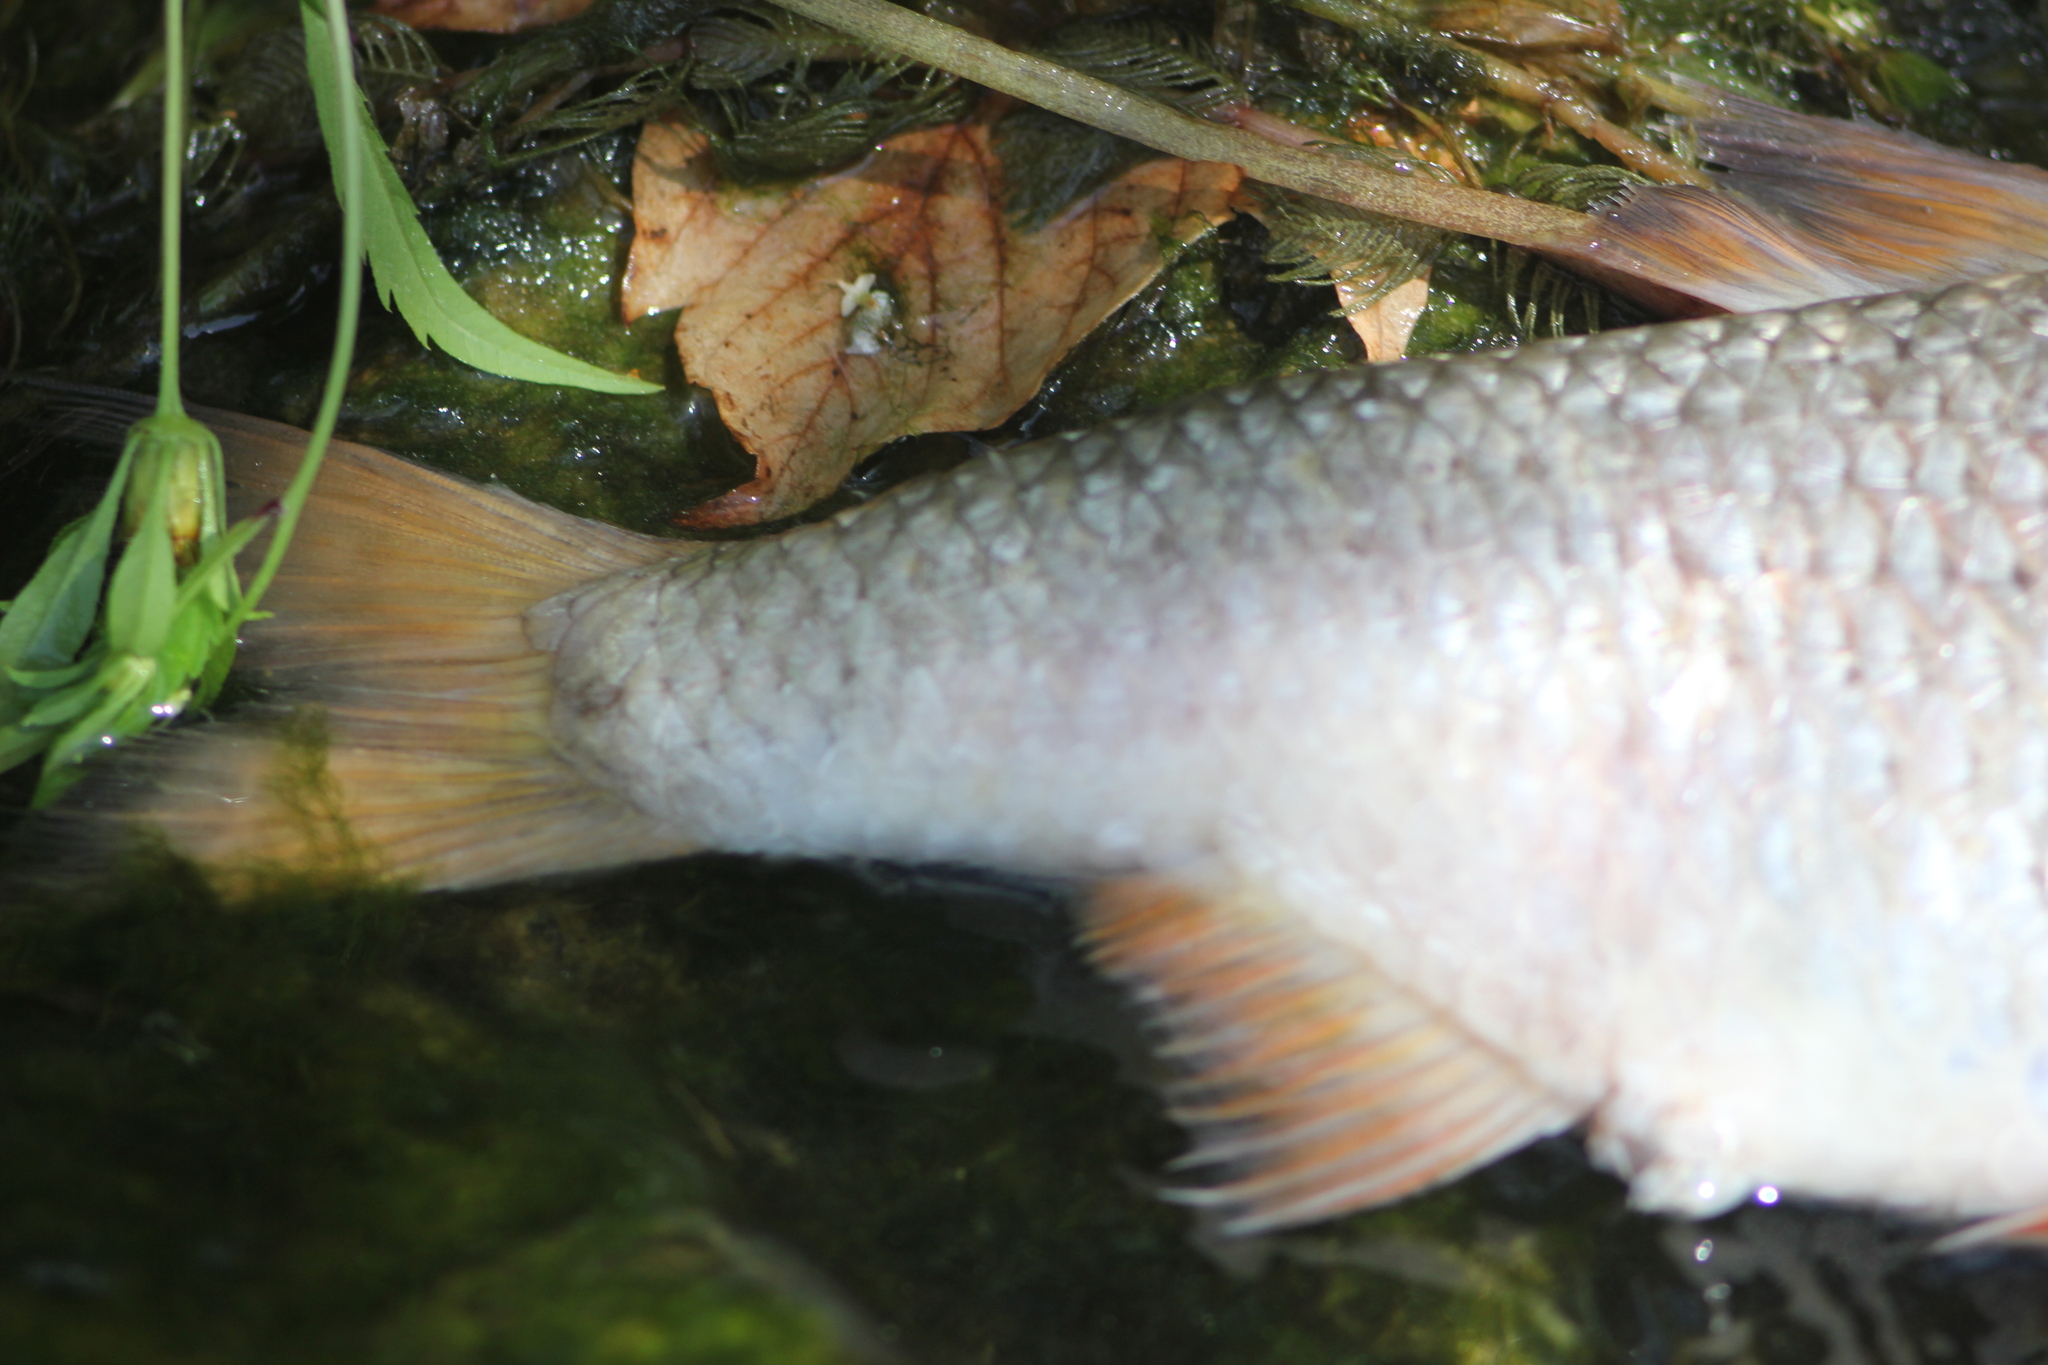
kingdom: Animalia
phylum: Chordata
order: Cypriniformes
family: Cyprinidae
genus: Scardinius
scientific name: Scardinius erythrophthalmus
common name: Rudd
